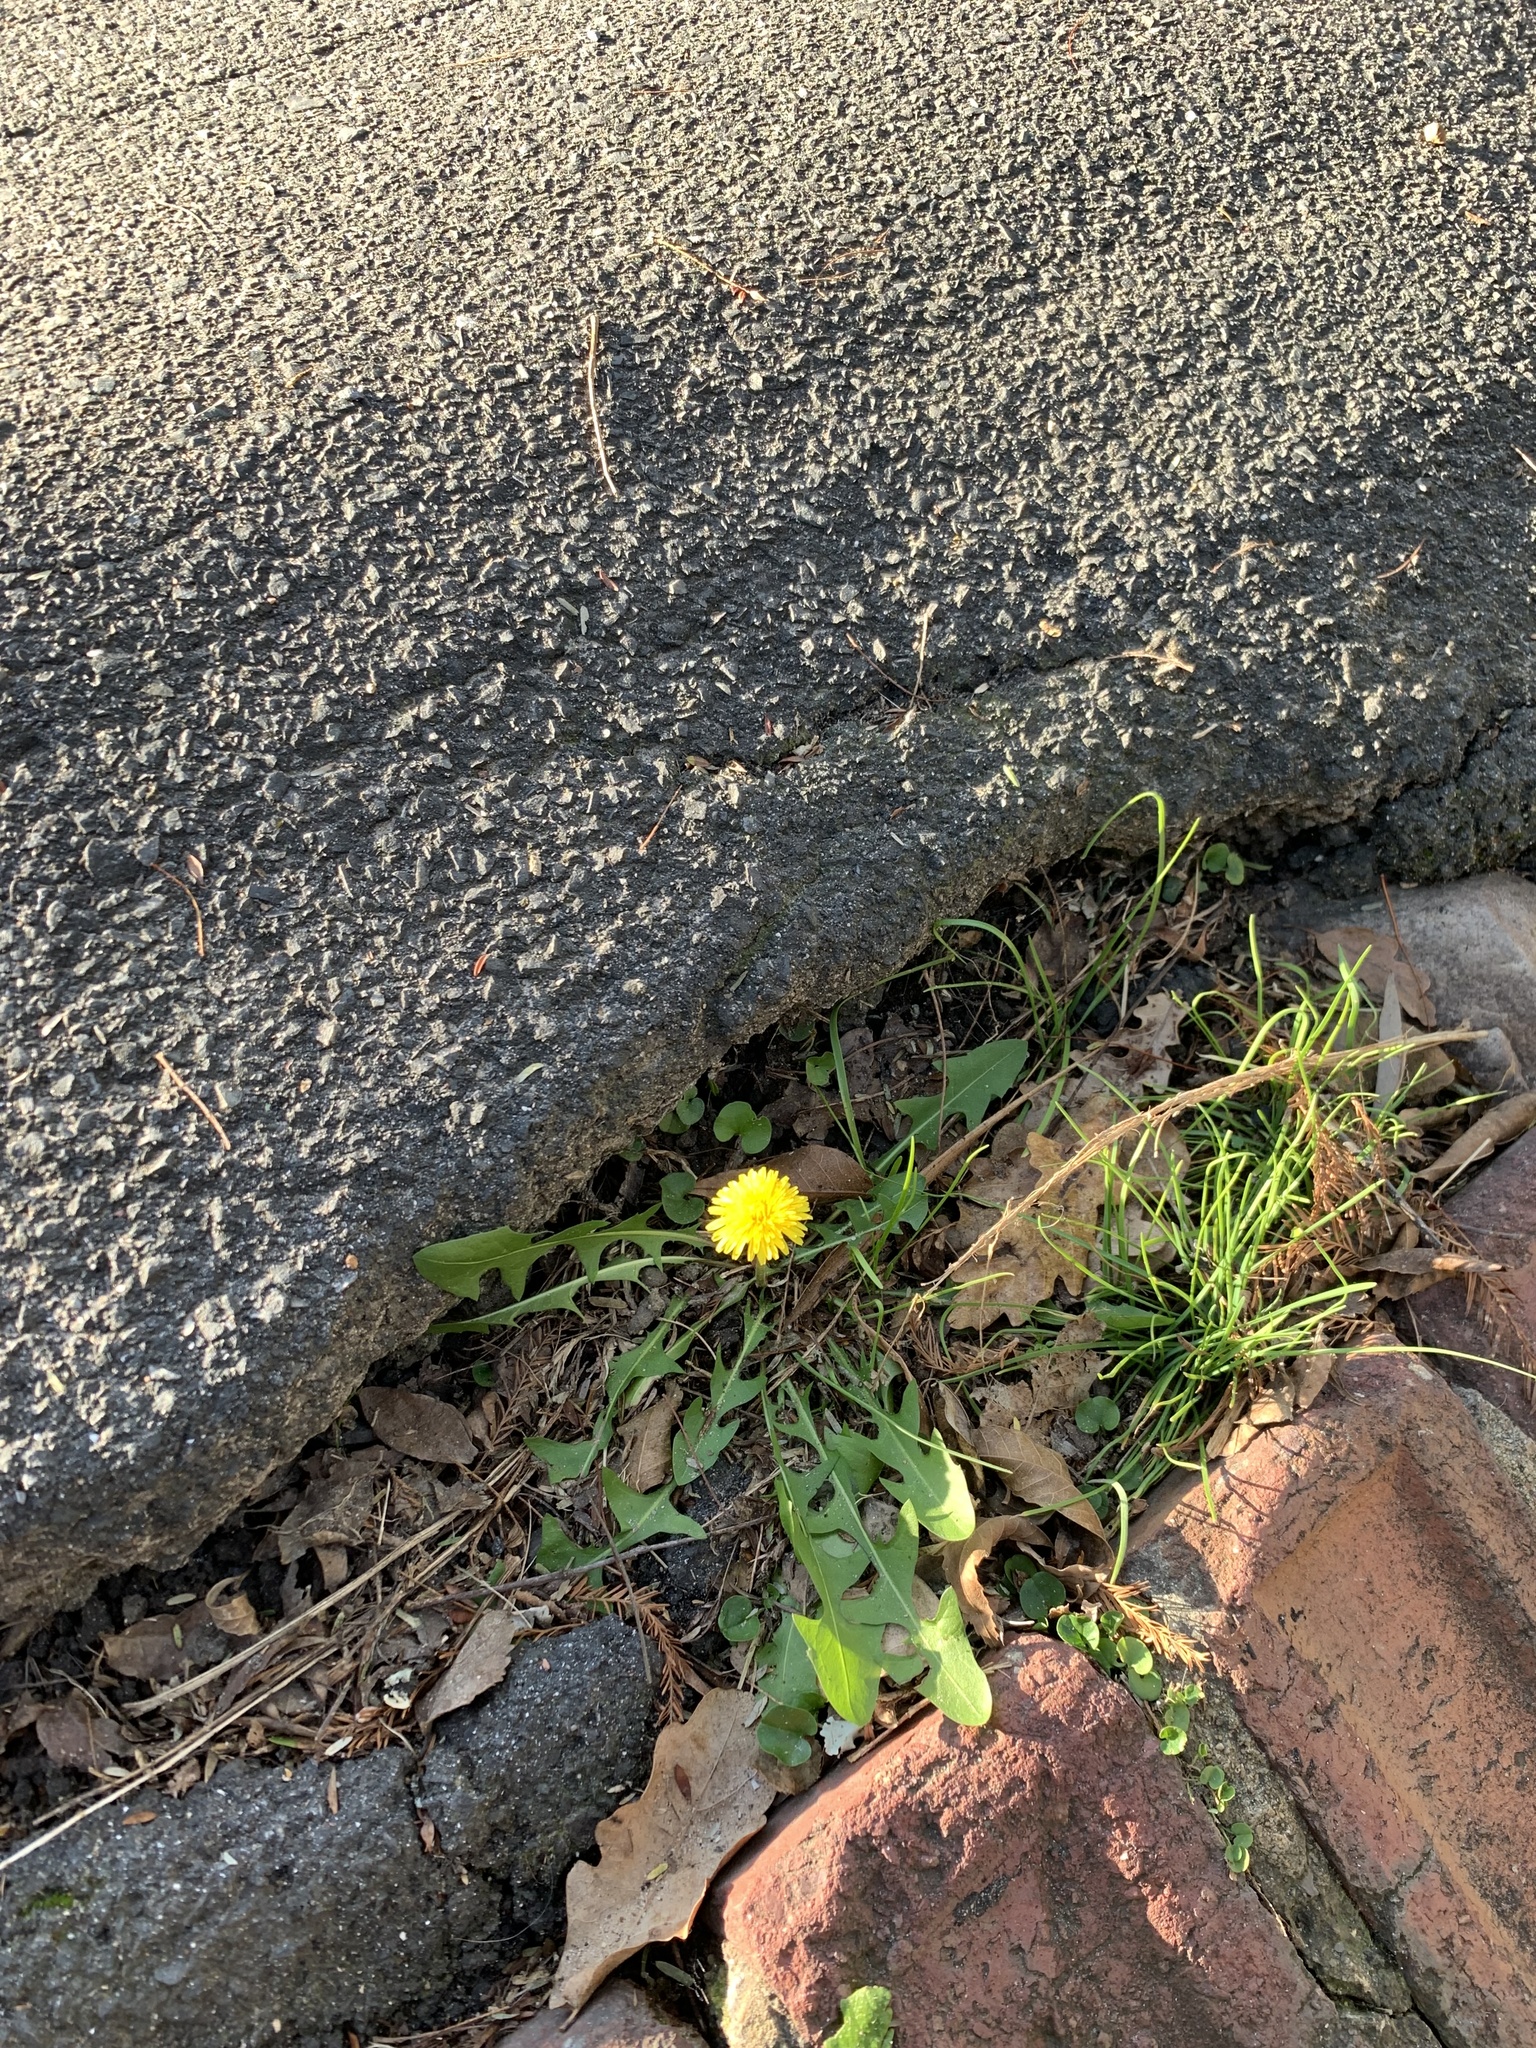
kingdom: Plantae
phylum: Tracheophyta
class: Magnoliopsida
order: Asterales
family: Asteraceae
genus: Taraxacum
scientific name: Taraxacum officinale
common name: Common dandelion
